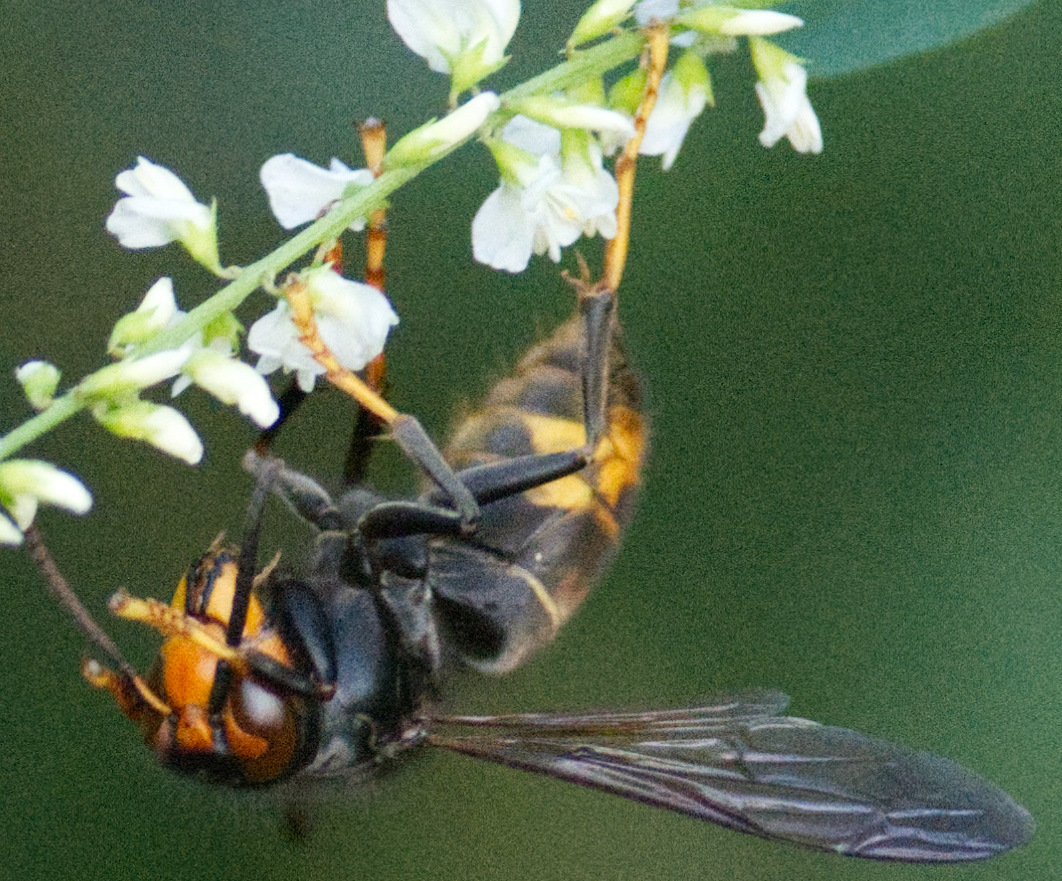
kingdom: Animalia
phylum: Arthropoda
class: Insecta
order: Hymenoptera
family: Vespidae
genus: Vespa
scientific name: Vespa velutina
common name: Asian hornet
